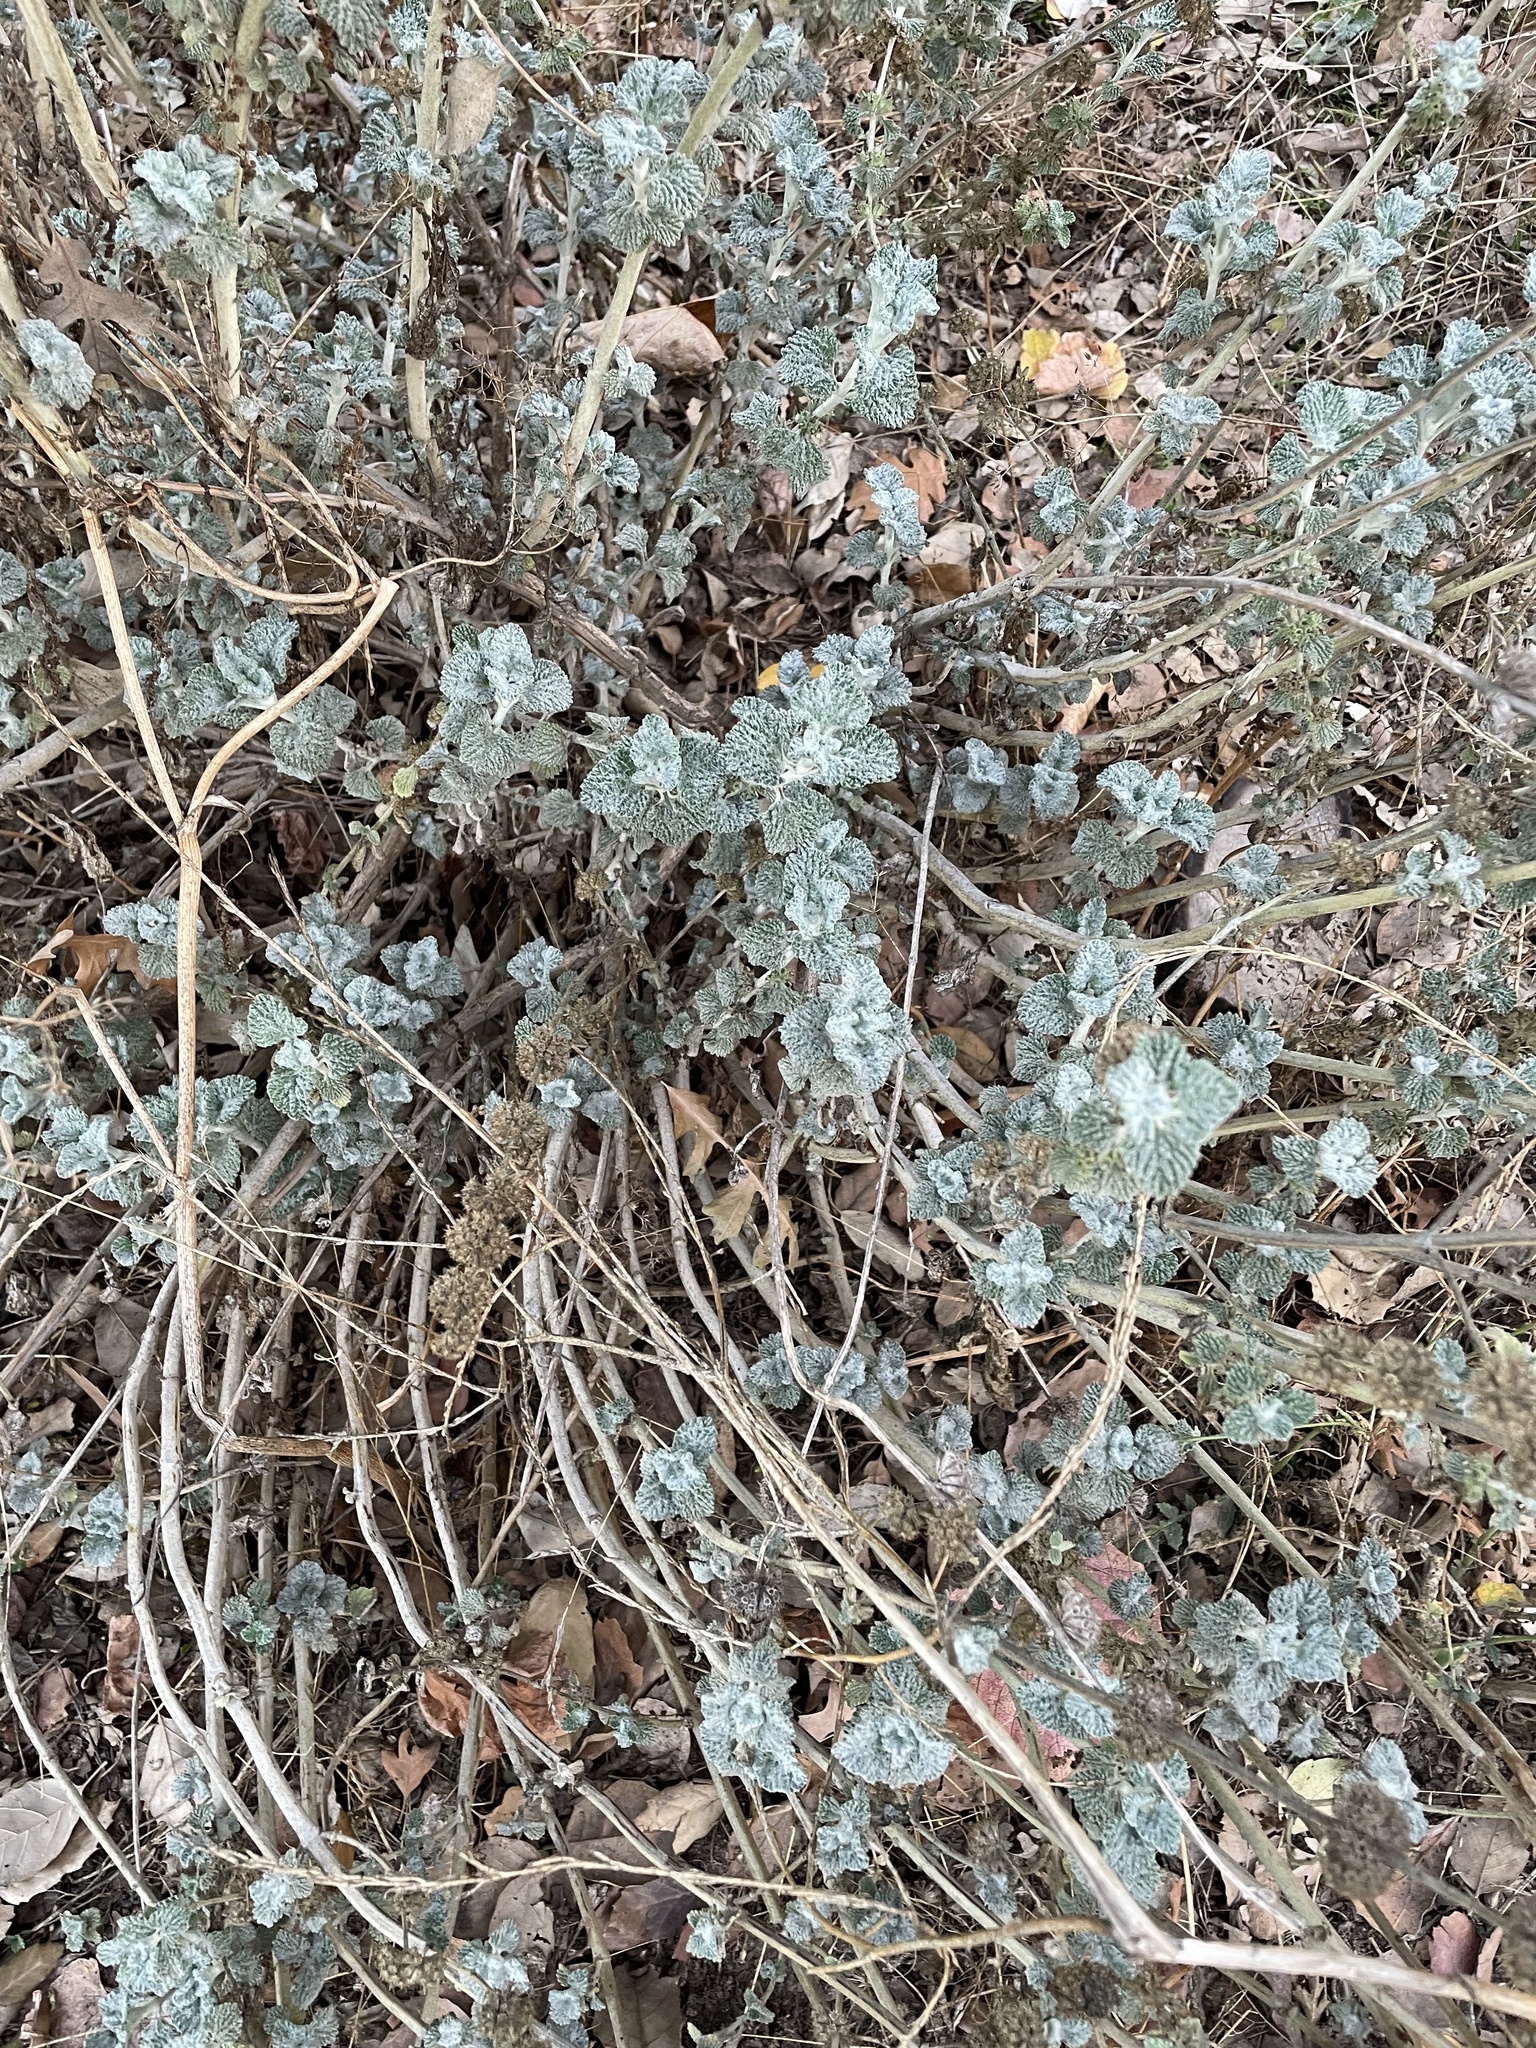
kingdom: Plantae
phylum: Tracheophyta
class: Magnoliopsida
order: Lamiales
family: Lamiaceae
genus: Marrubium
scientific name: Marrubium vulgare
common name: Horehound
